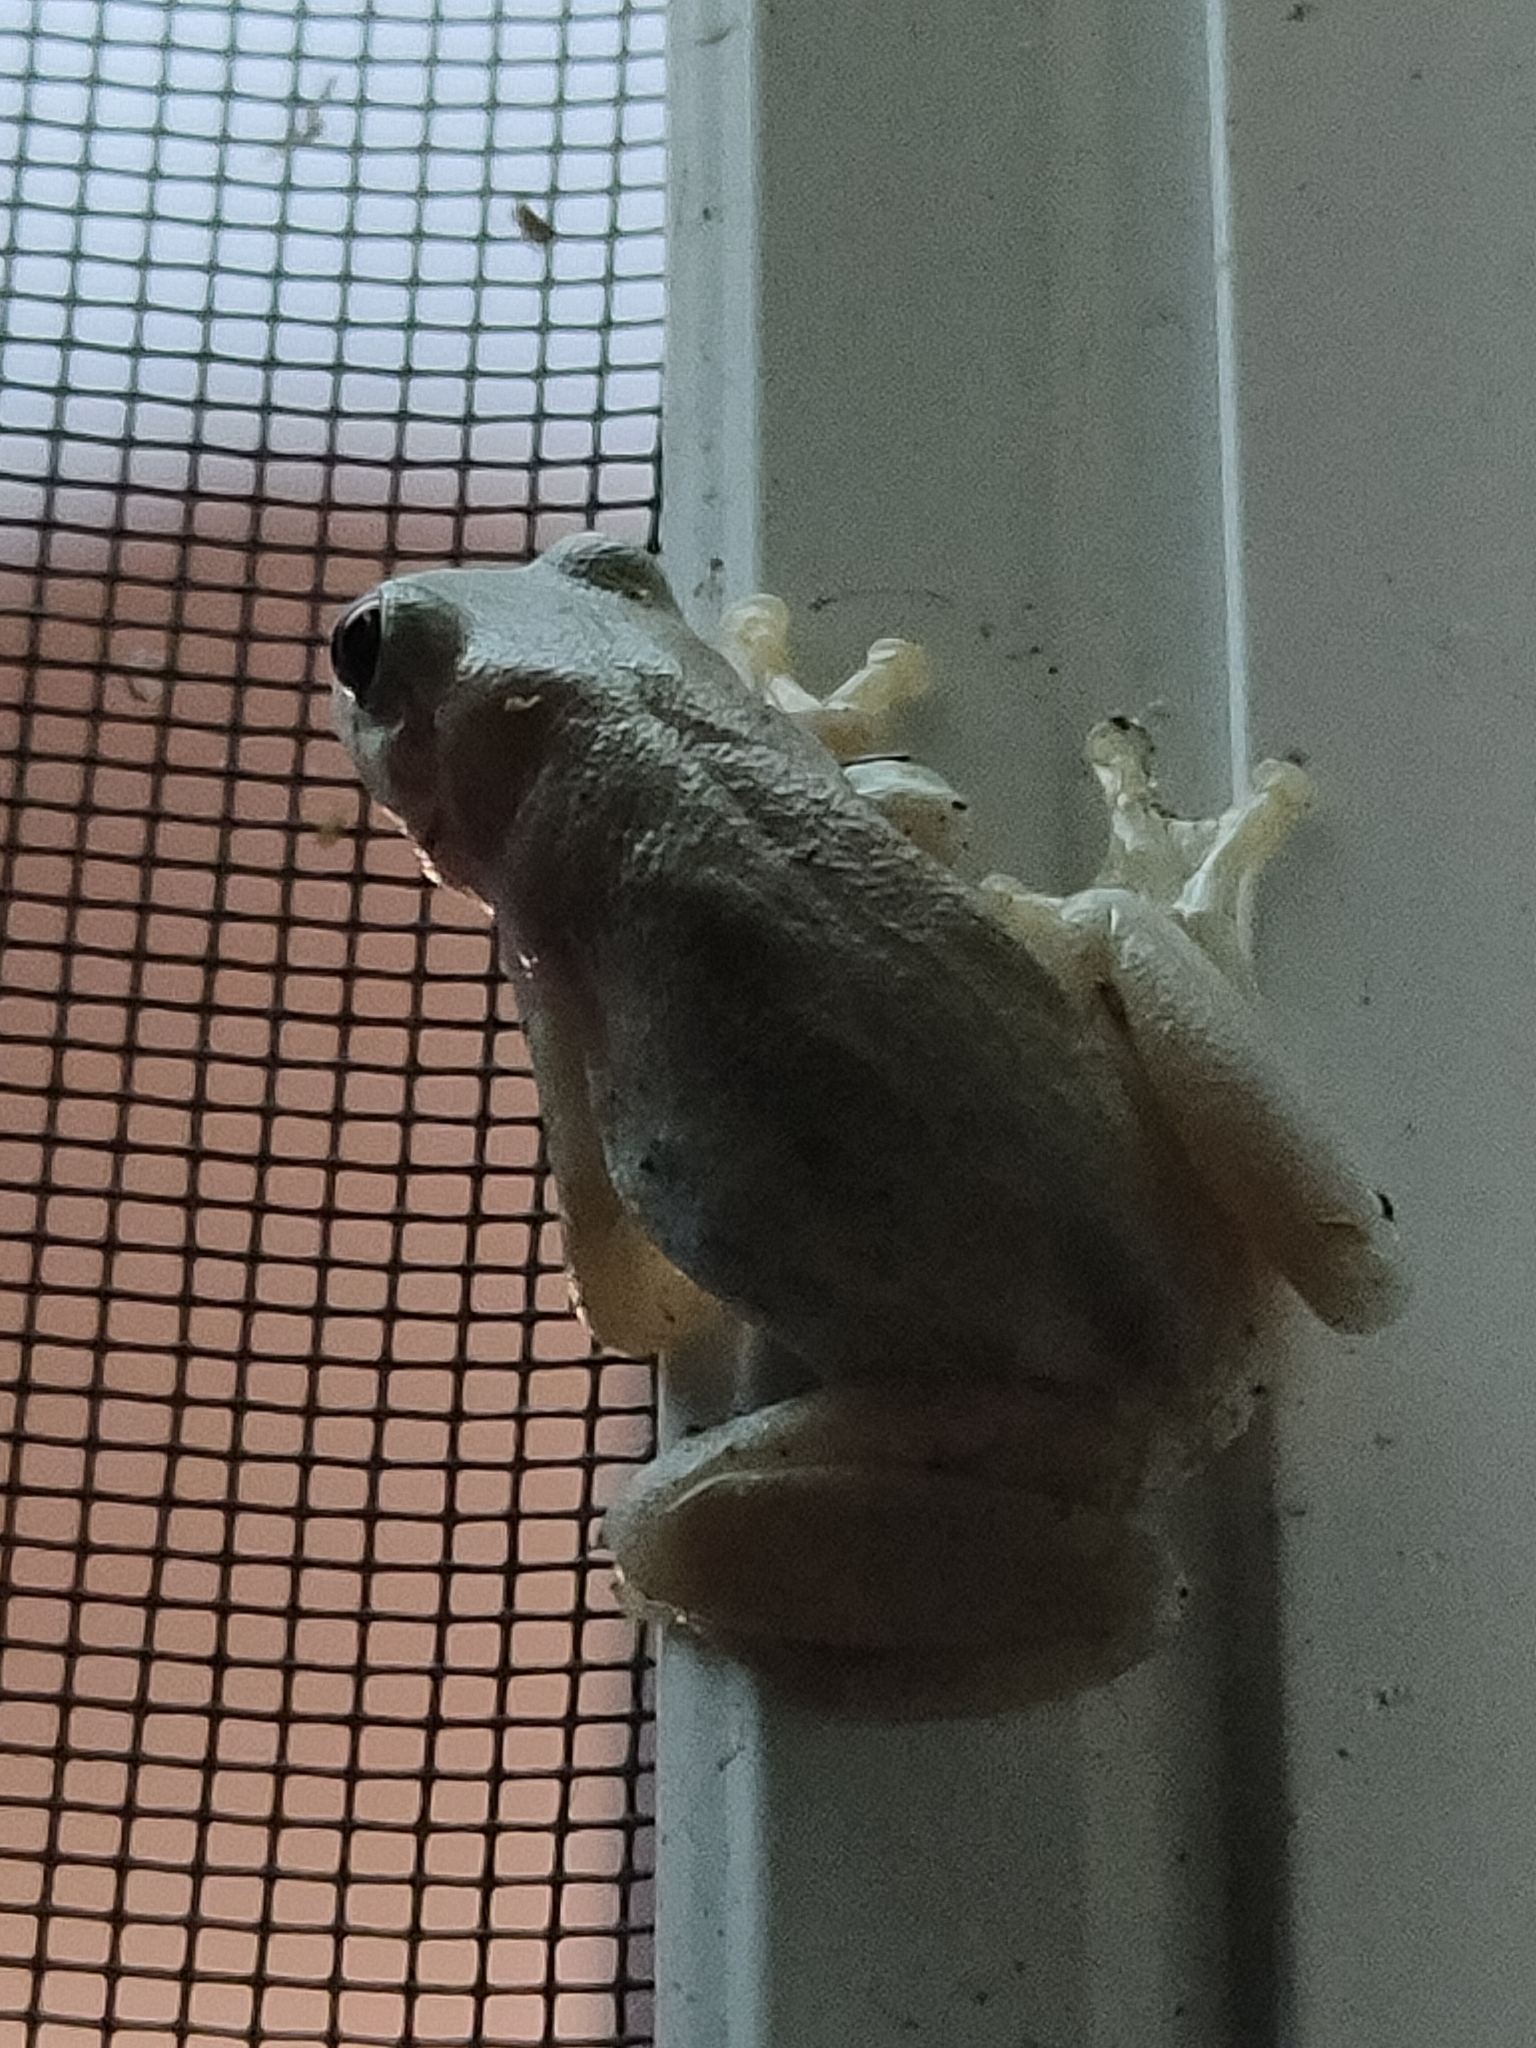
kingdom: Animalia
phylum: Chordata
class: Amphibia
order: Anura
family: Pelodryadidae
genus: Litoria
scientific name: Litoria rubella
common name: Desert tree frog
